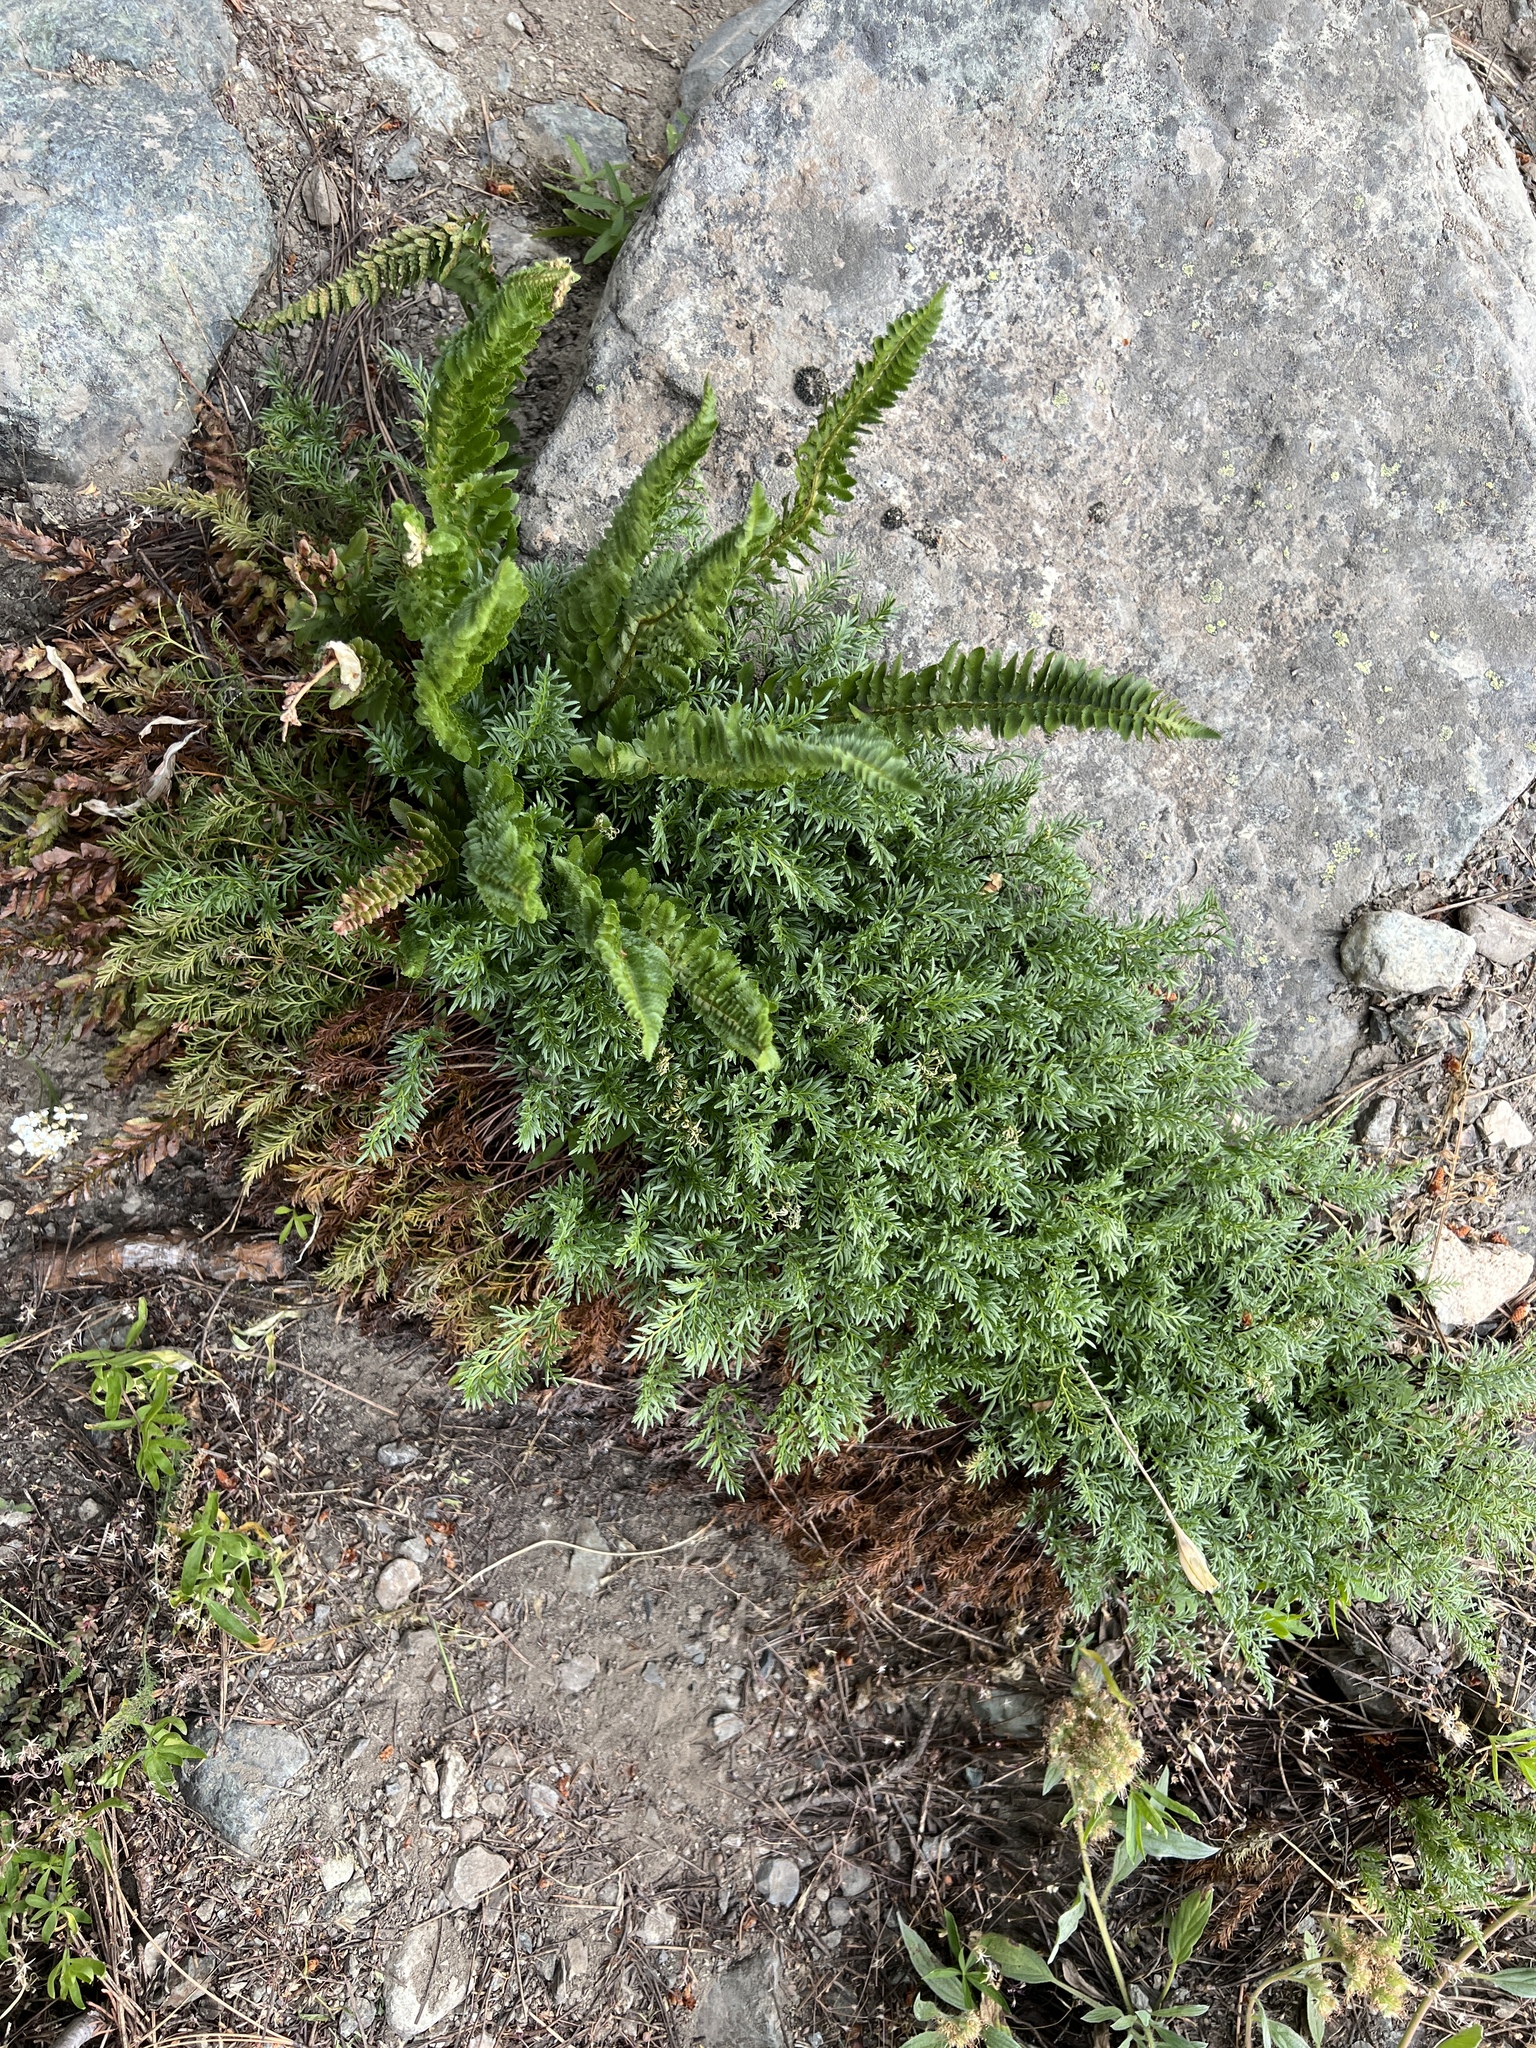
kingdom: Plantae
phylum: Tracheophyta
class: Polypodiopsida
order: Polypodiales
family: Pteridaceae
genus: Aspidotis
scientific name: Aspidotis densa
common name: Indian's dream
